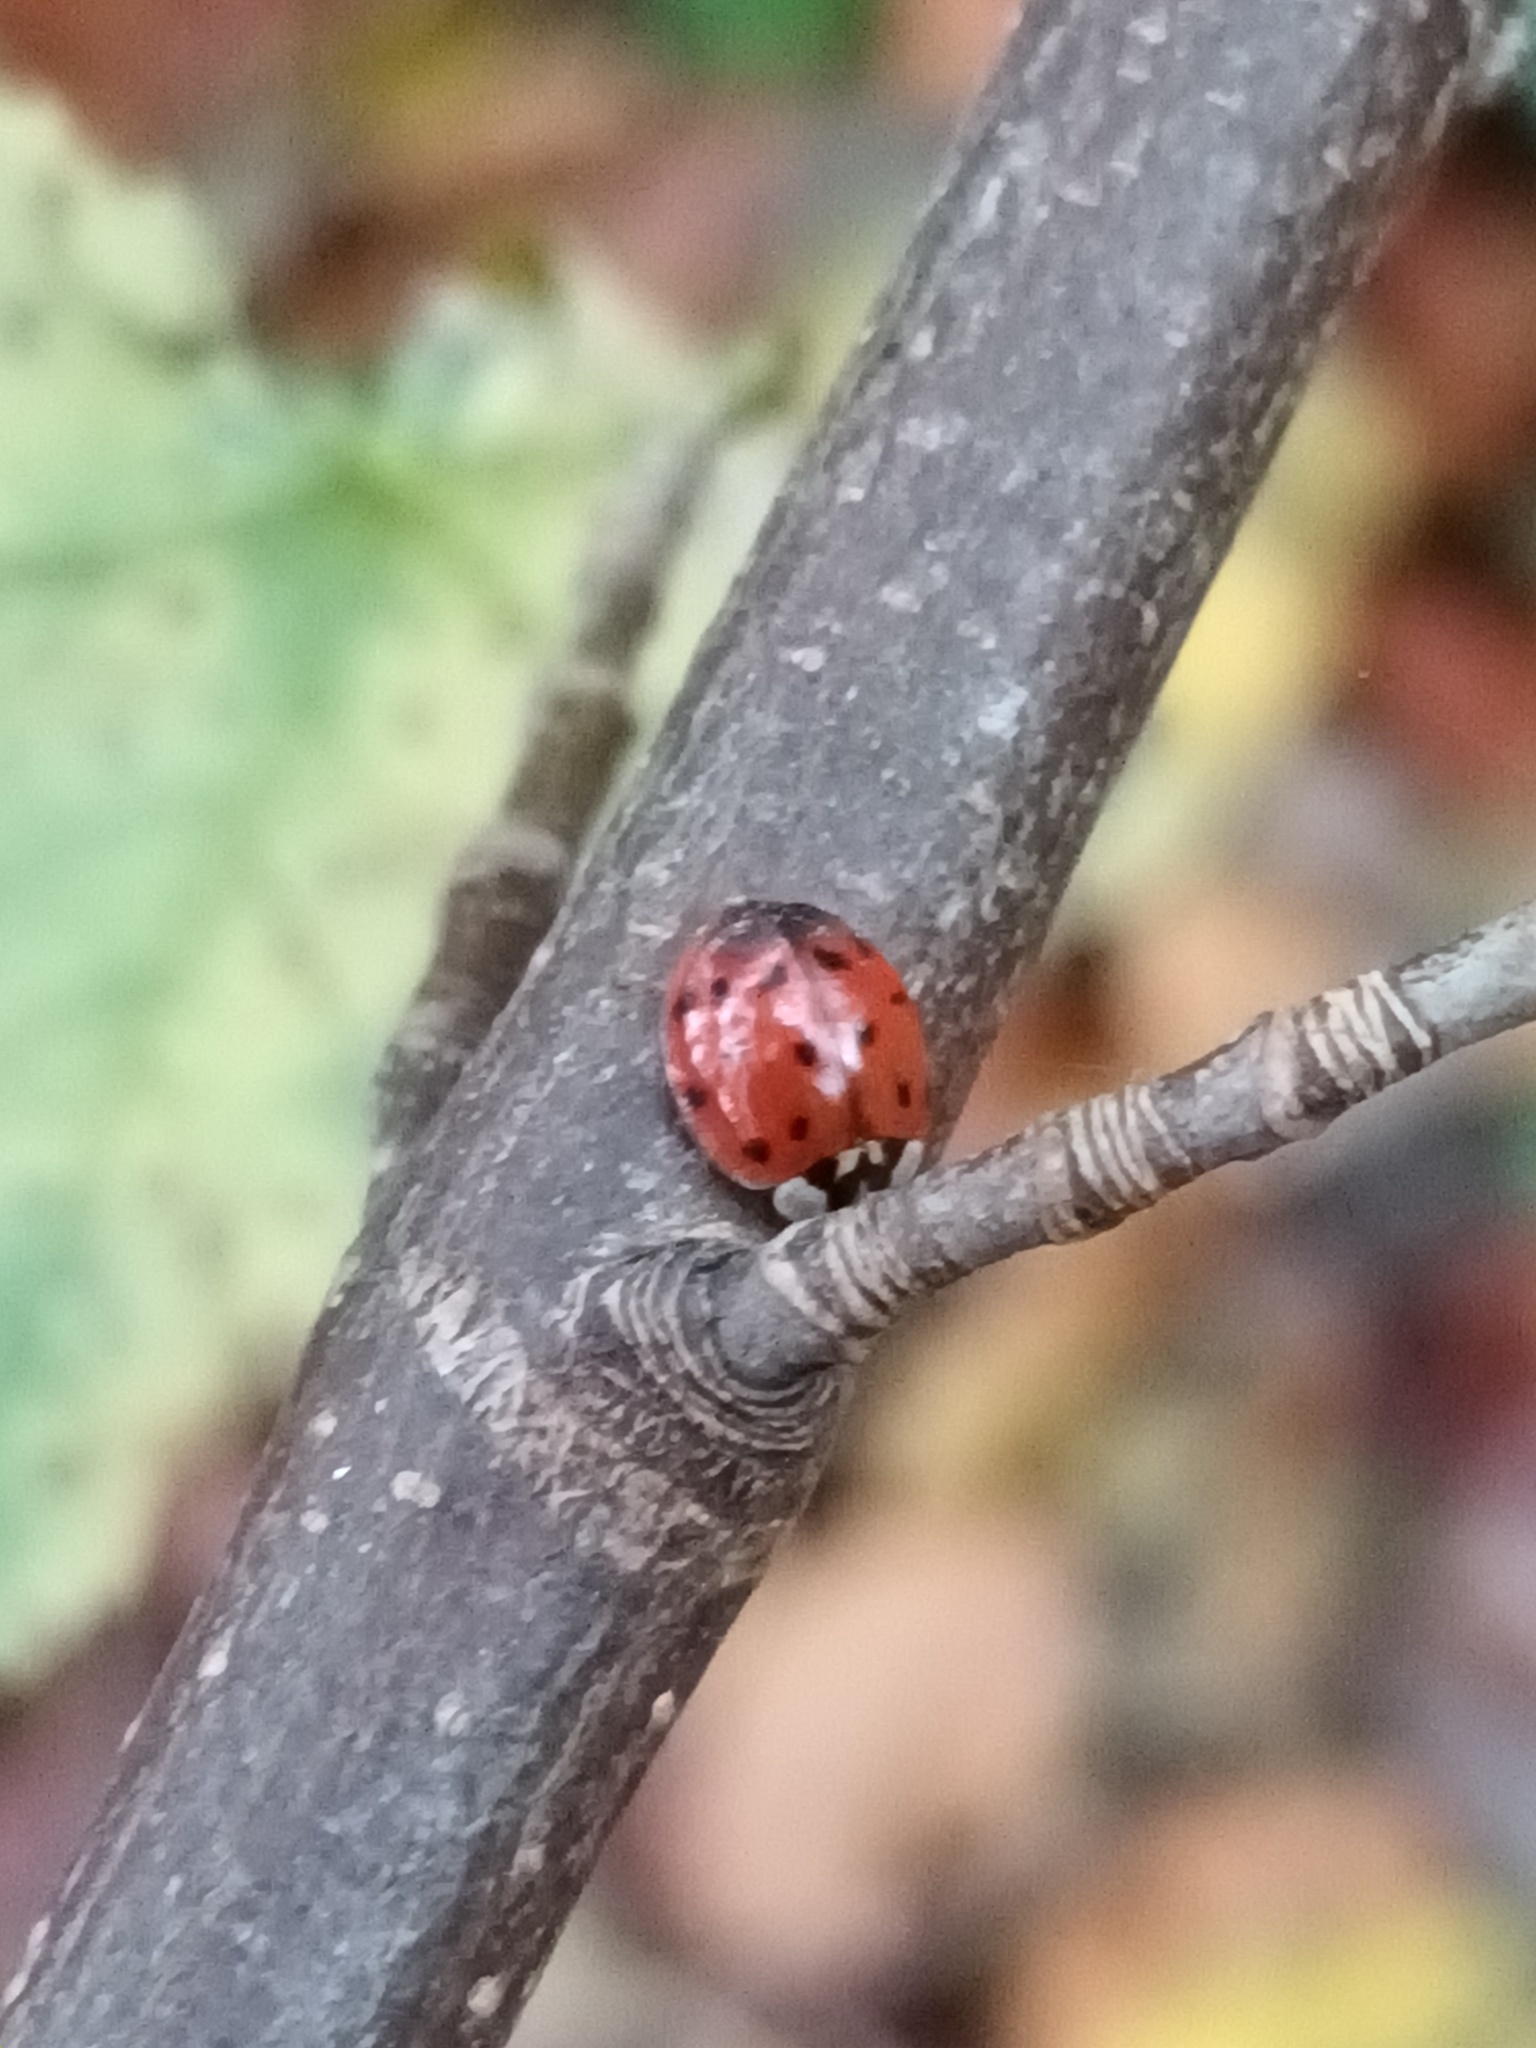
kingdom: Animalia
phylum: Arthropoda
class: Insecta
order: Coleoptera
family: Coccinellidae
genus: Harmonia
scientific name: Harmonia axyridis
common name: Harlequin ladybird
